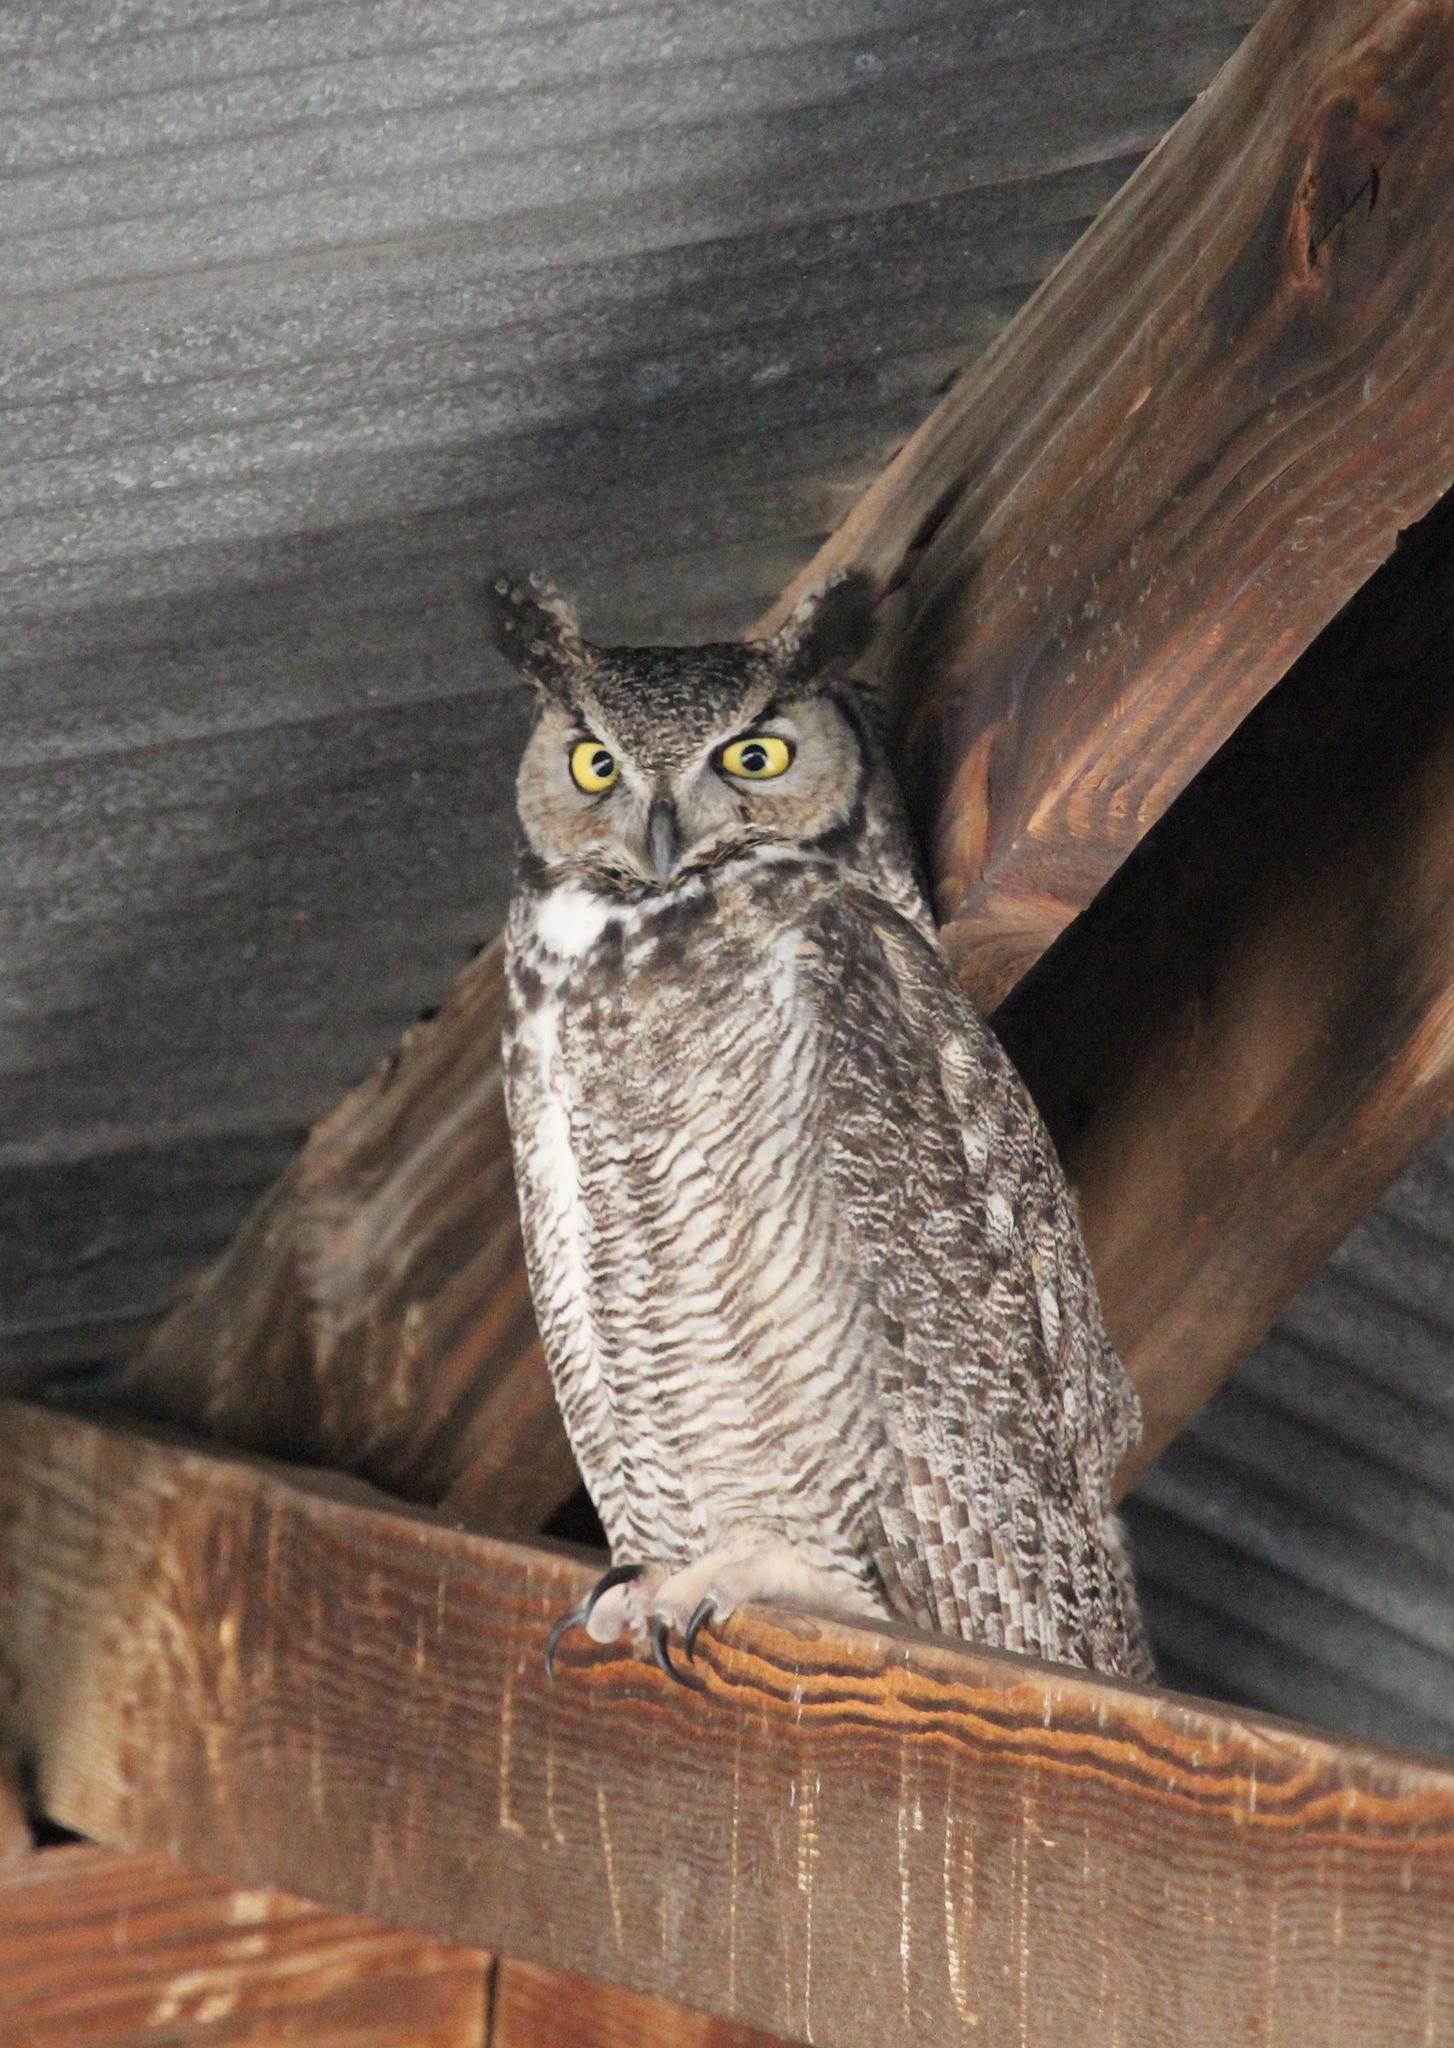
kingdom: Animalia
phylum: Chordata
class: Aves
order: Strigiformes
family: Strigidae
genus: Bubo
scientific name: Bubo virginianus
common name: Great horned owl
